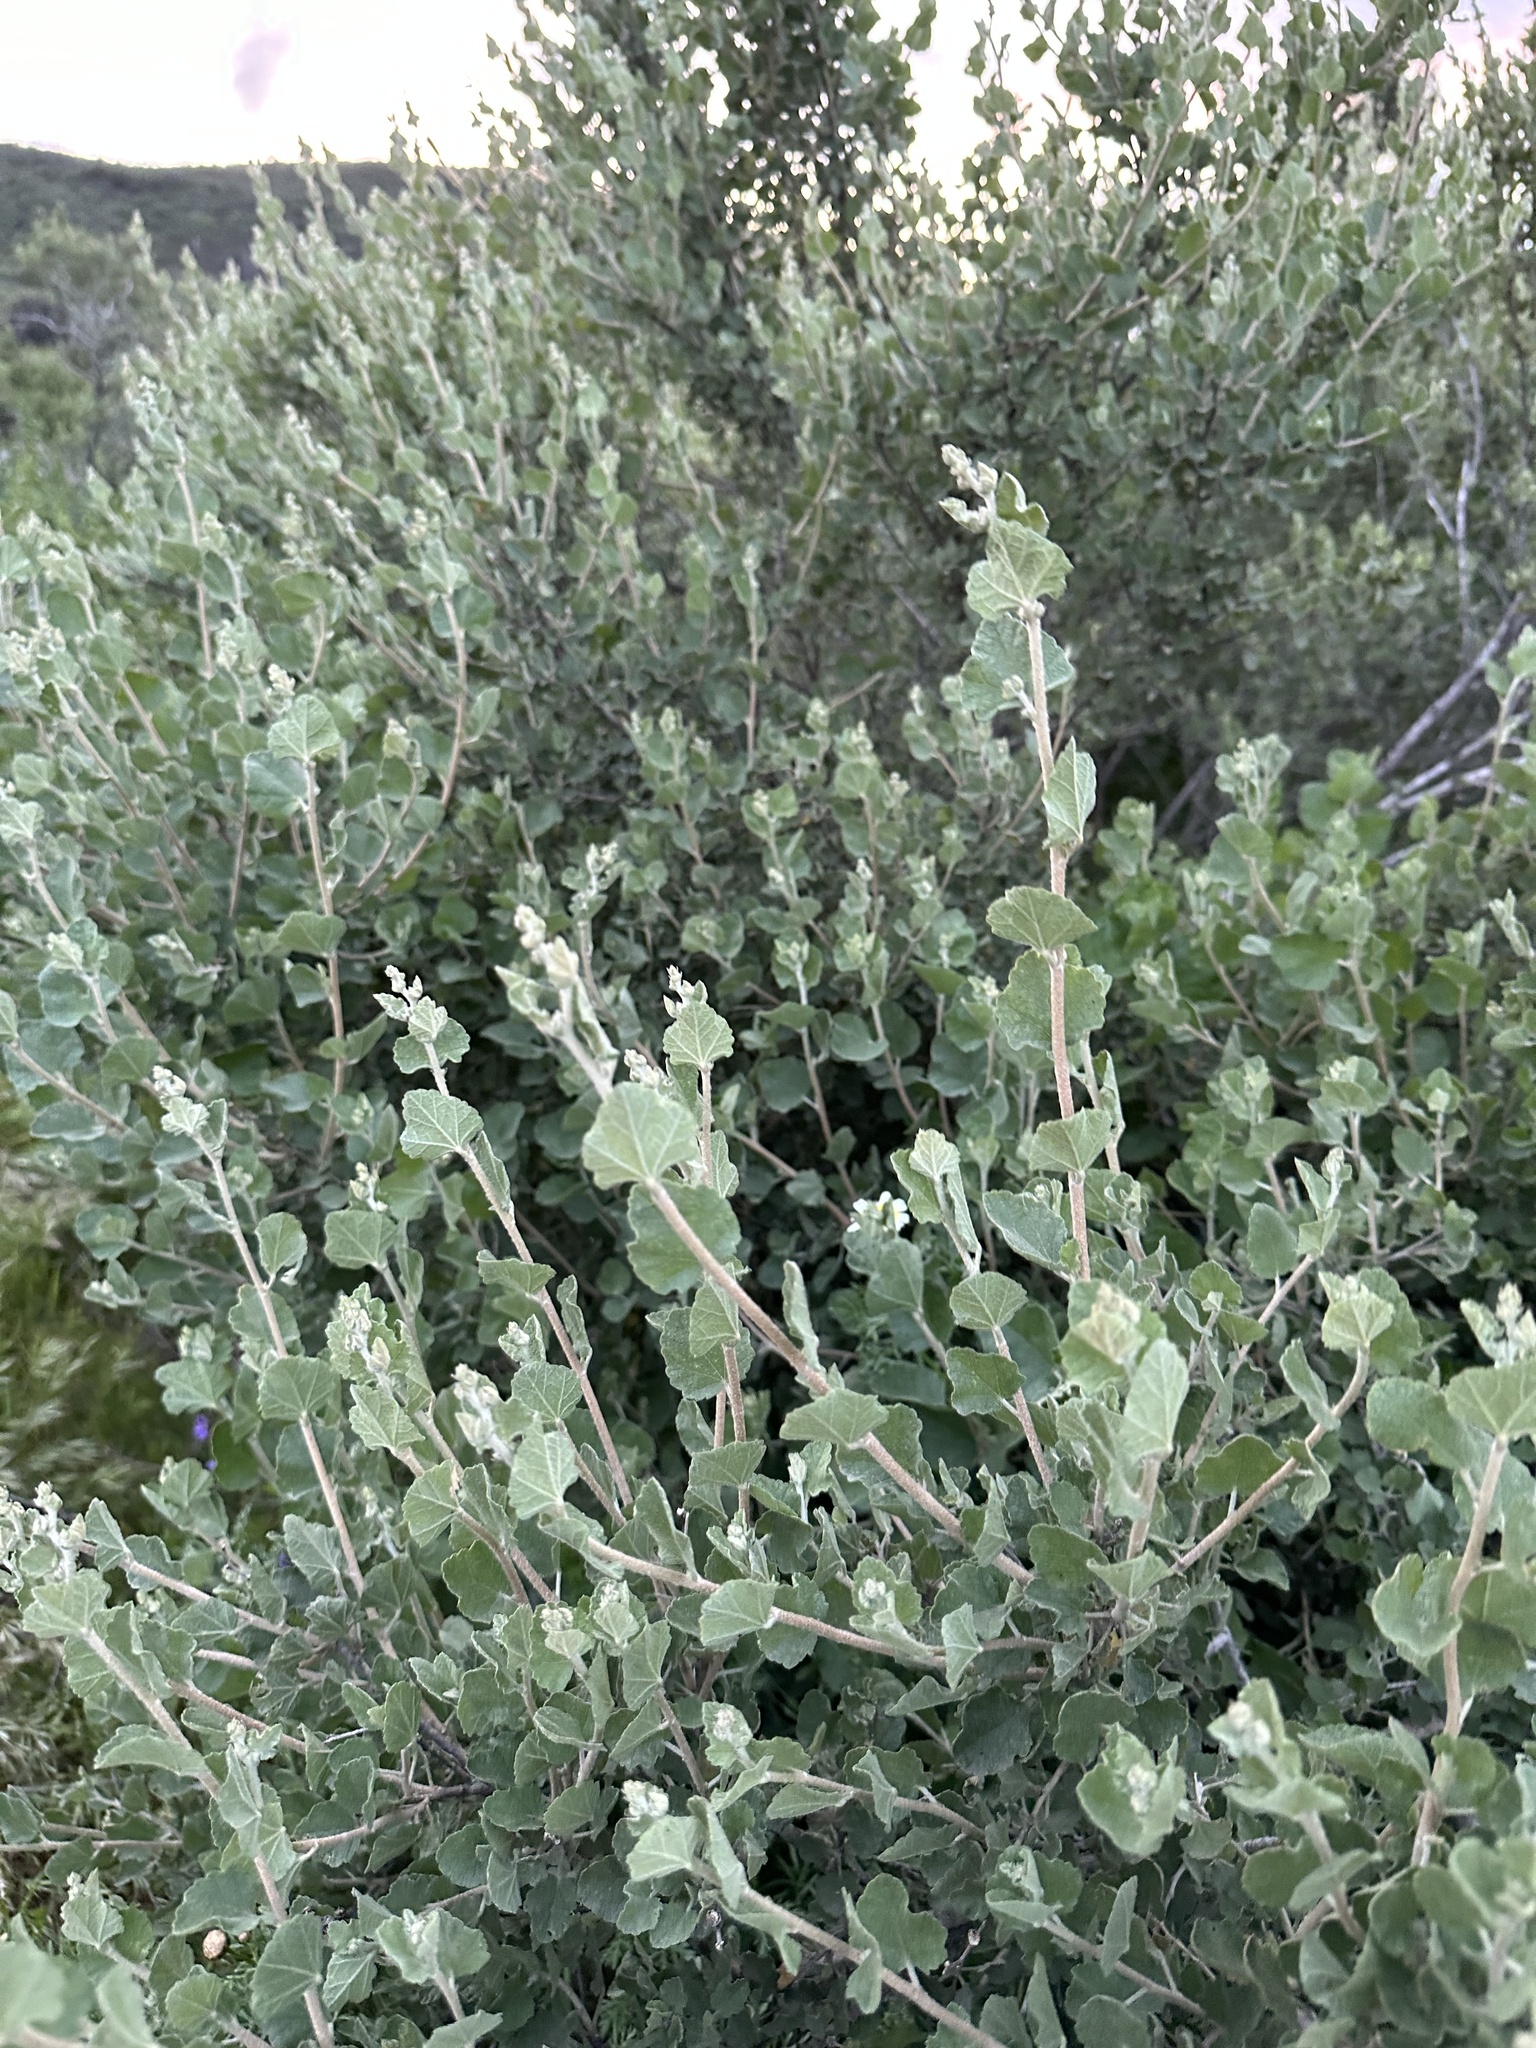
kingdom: Plantae
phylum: Tracheophyta
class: Magnoliopsida
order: Malvales
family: Malvaceae
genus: Malacothamnus
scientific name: Malacothamnus fasciculatus
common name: Sant cruz island bush-mallow
